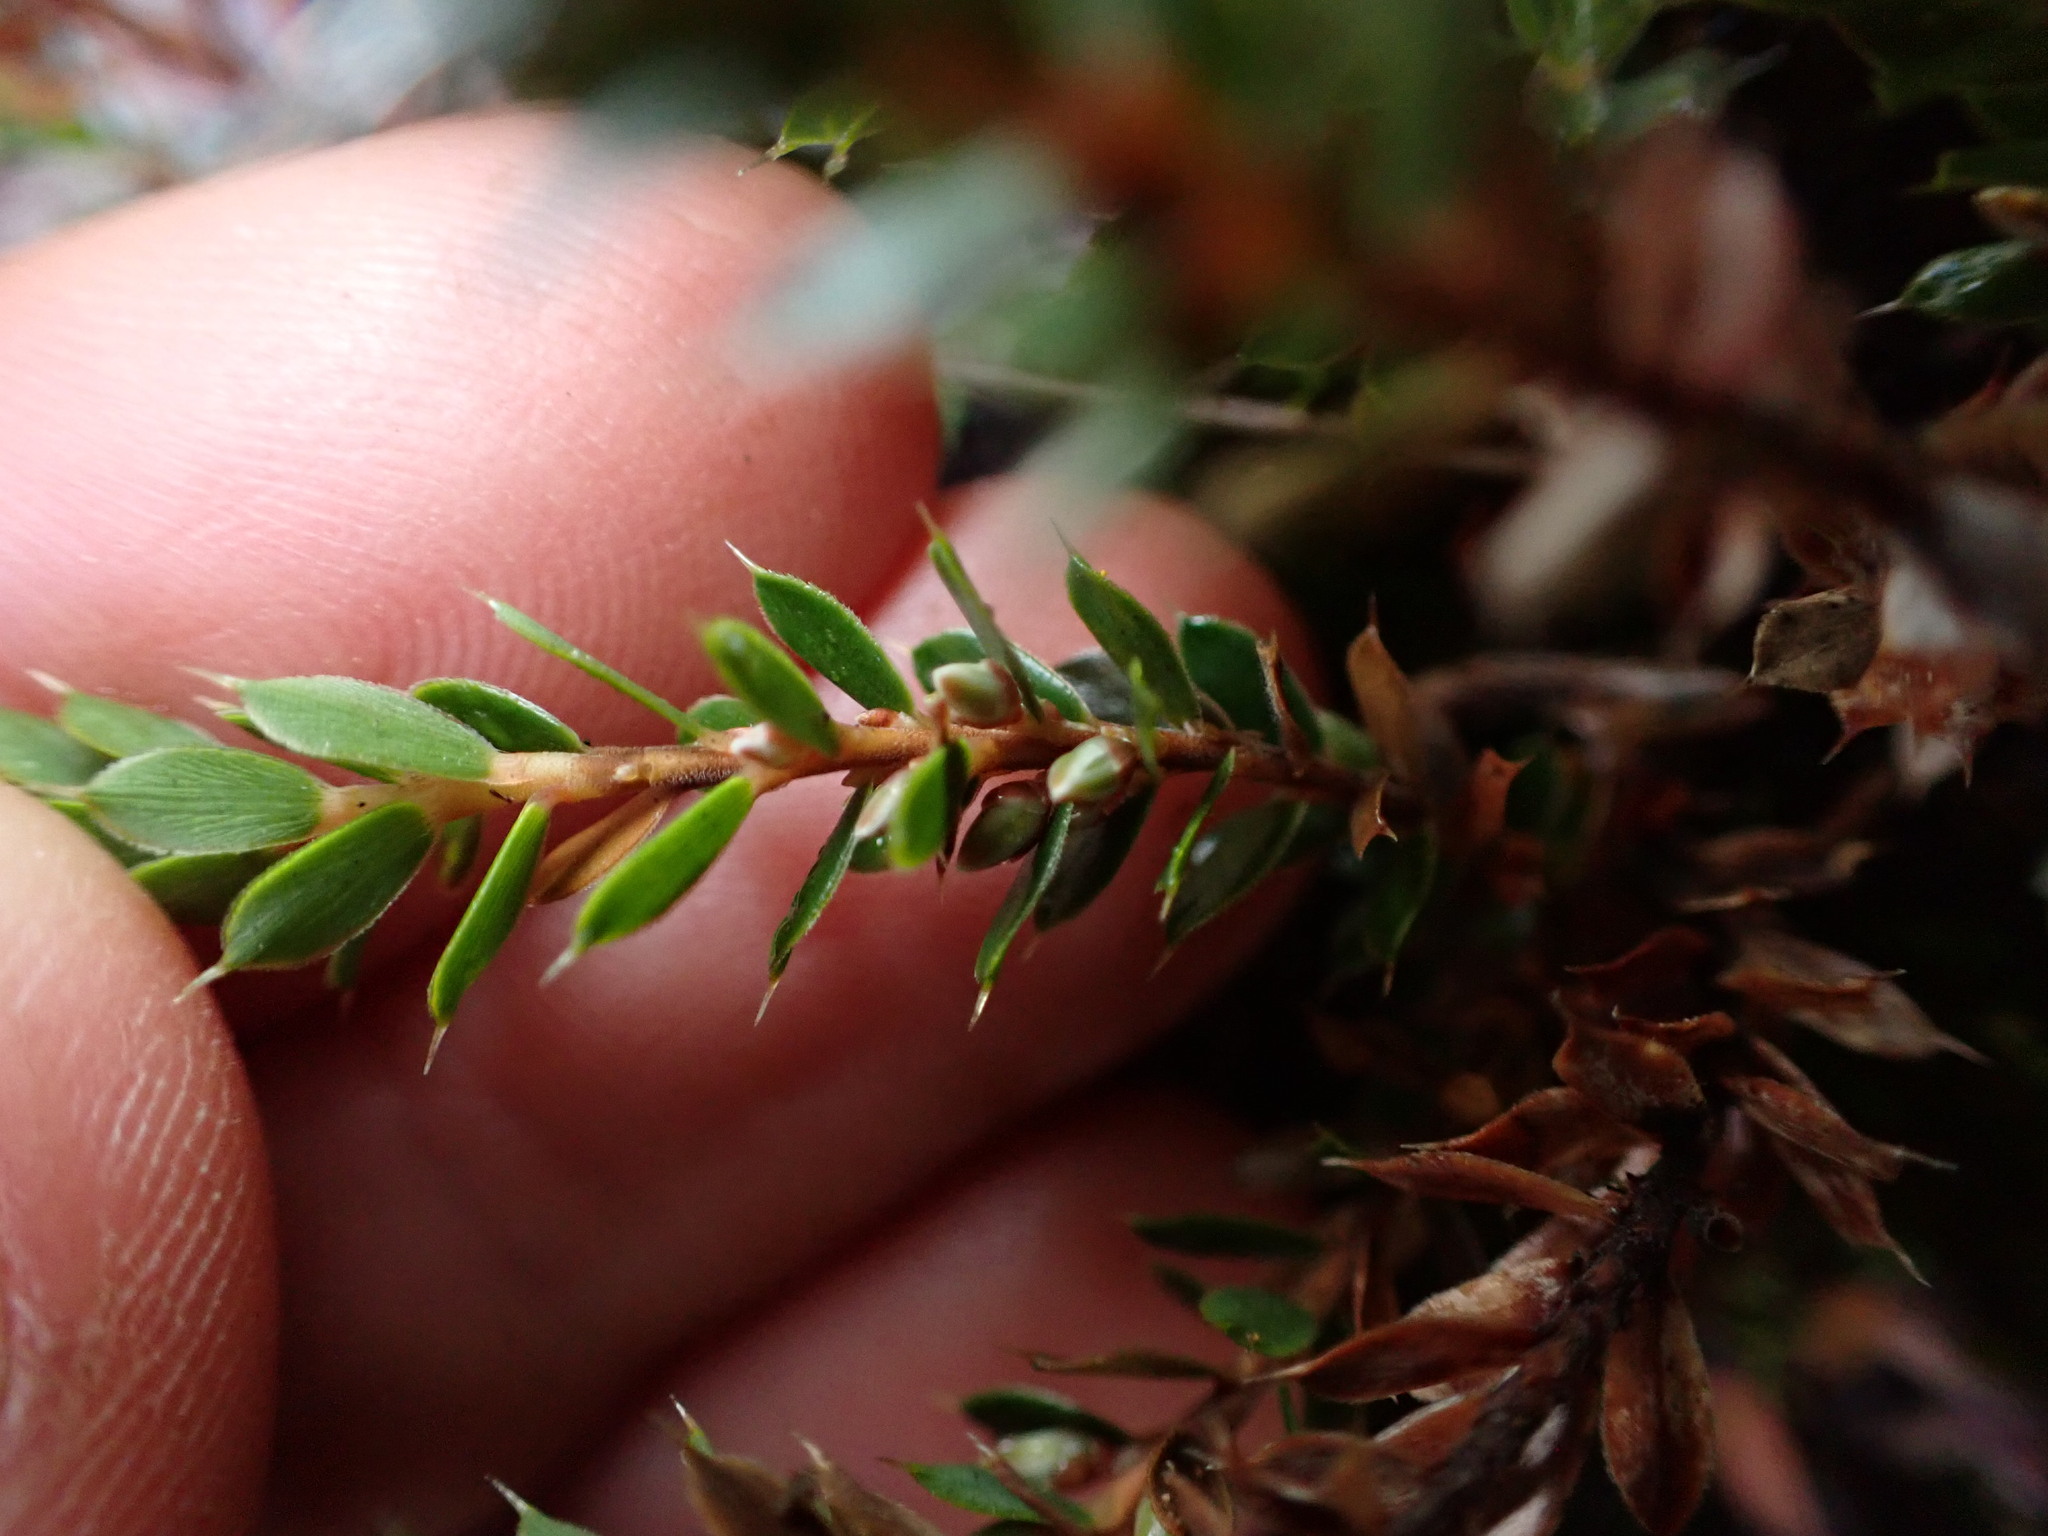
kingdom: Plantae
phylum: Tracheophyta
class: Magnoliopsida
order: Ericales
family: Ericaceae
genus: Styphelia
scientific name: Styphelia nesophila
